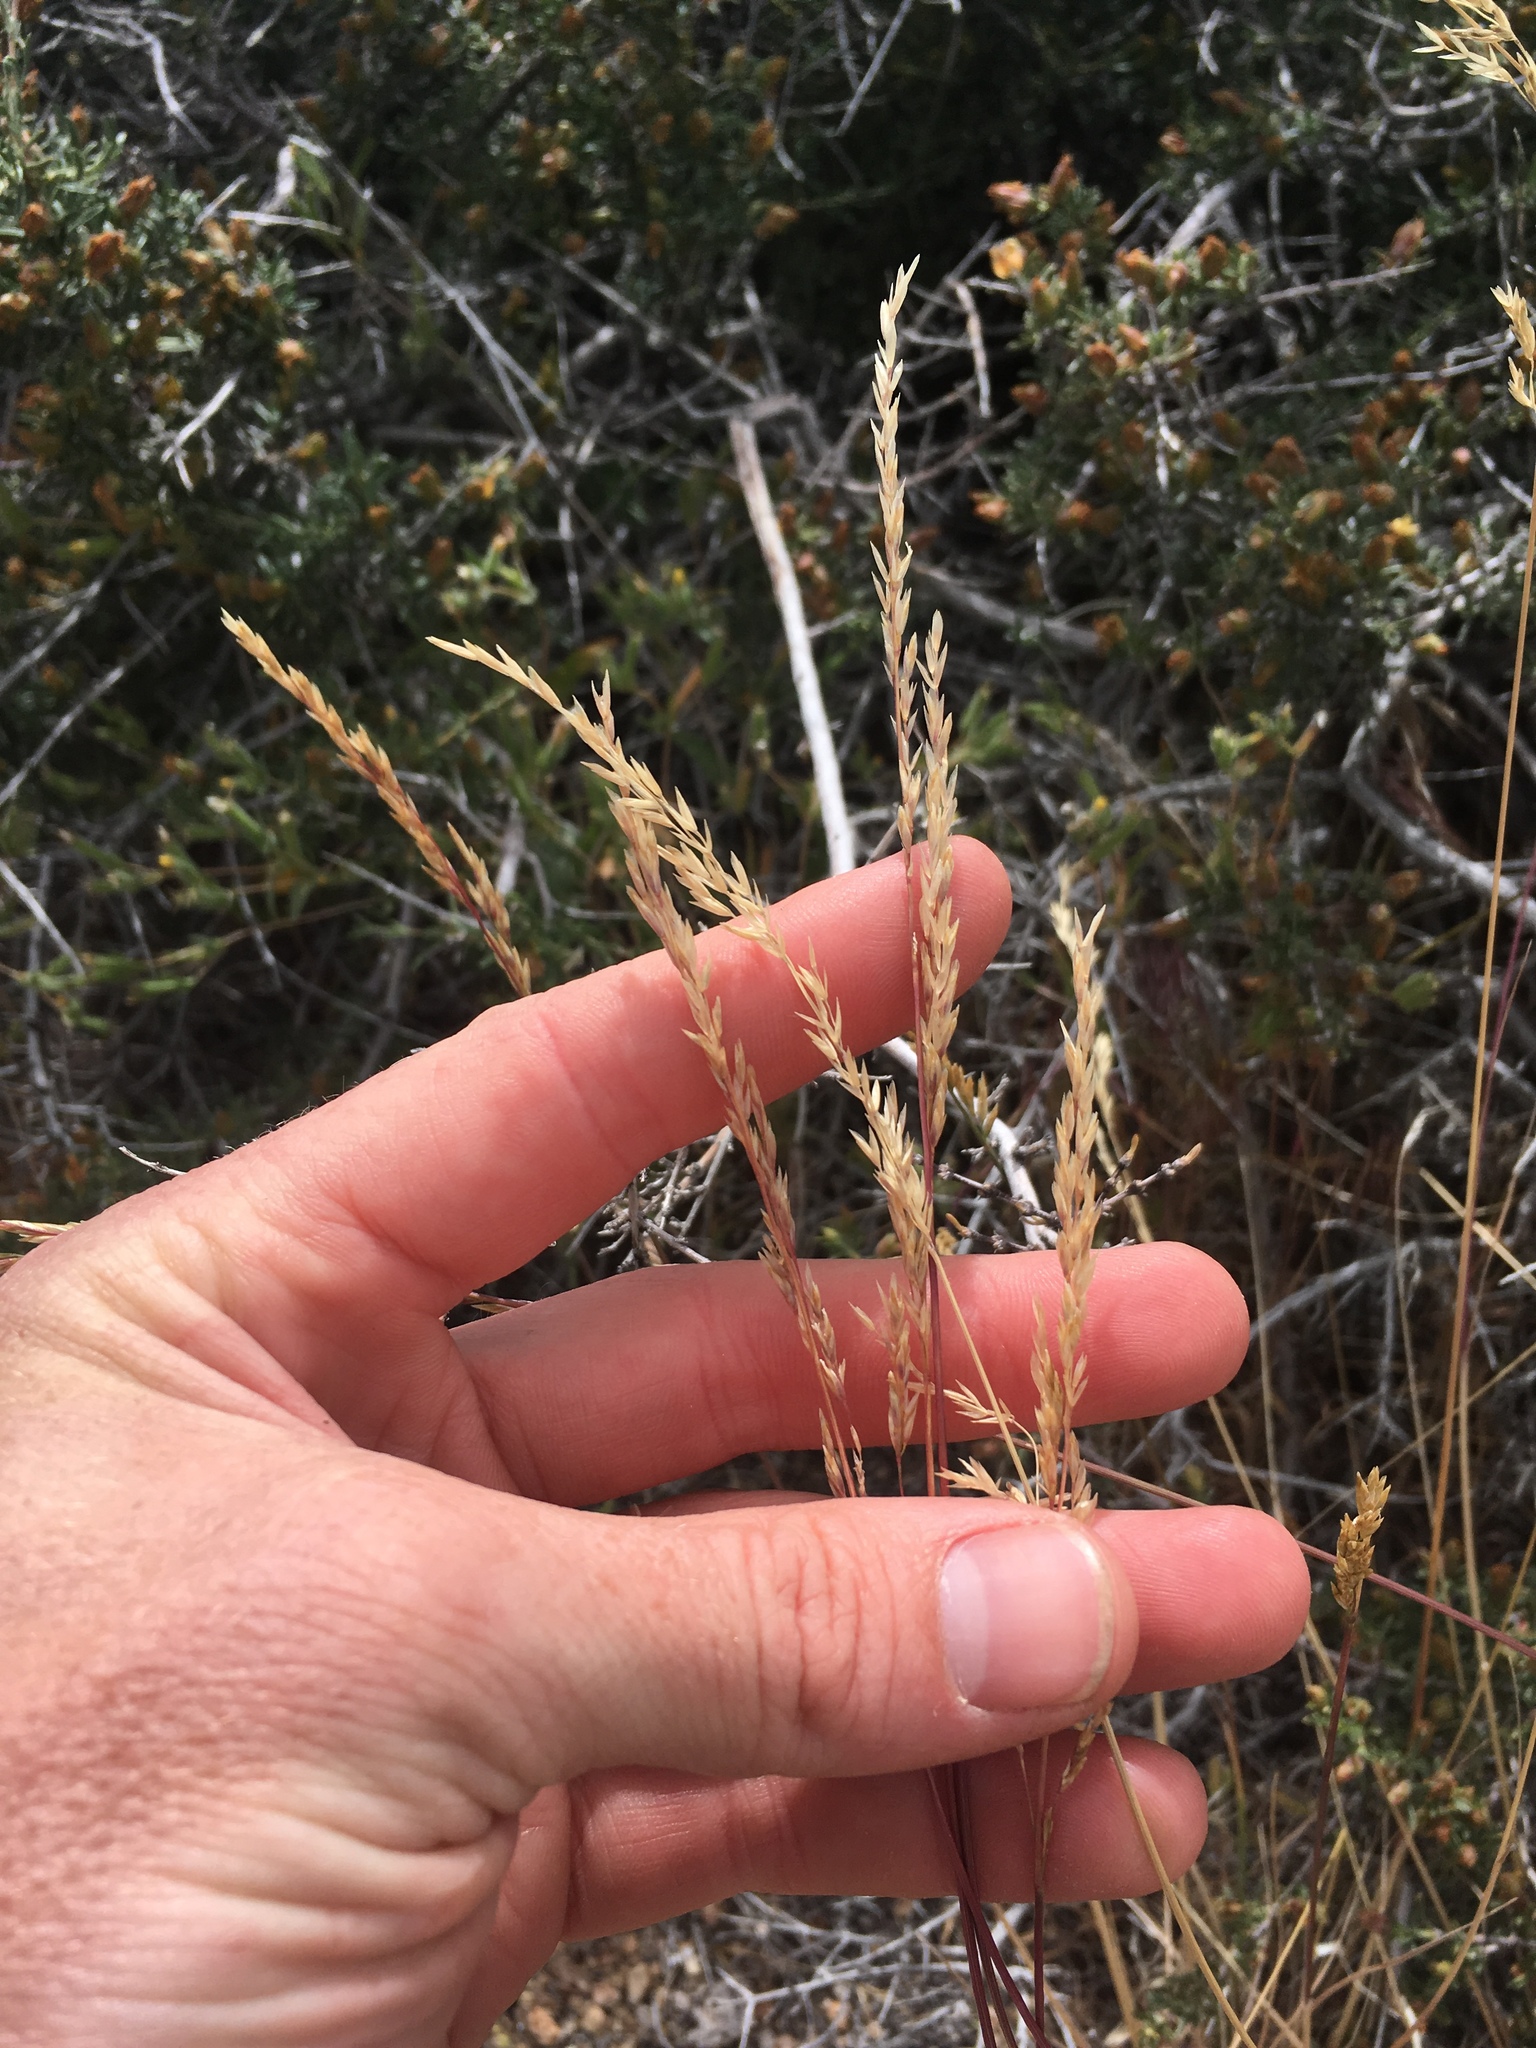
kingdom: Plantae
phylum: Tracheophyta
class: Liliopsida
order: Poales
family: Poaceae
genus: Poa
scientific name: Poa secunda
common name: Sandberg bluegrass
